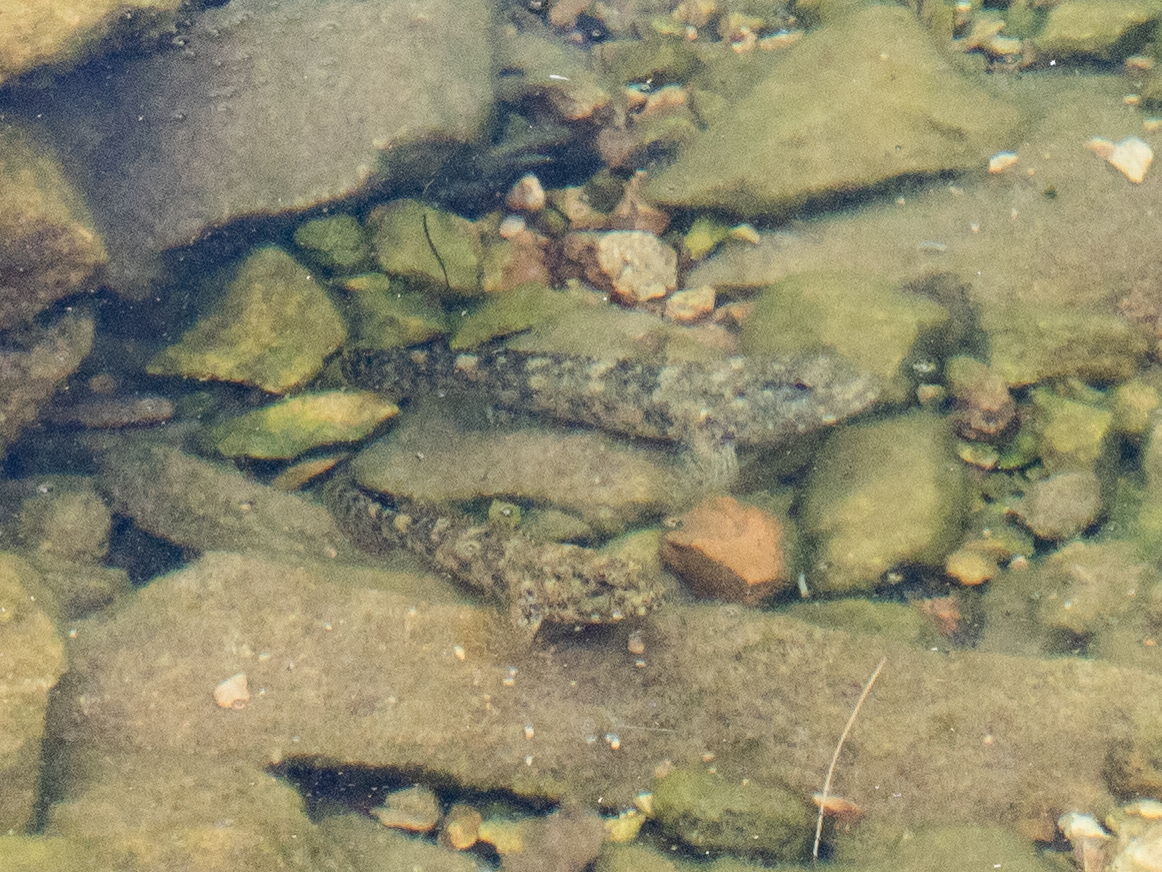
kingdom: Animalia
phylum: Chordata
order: Perciformes
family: Gobiidae
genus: Gobius
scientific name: Gobius cobitis
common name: Giant goby
